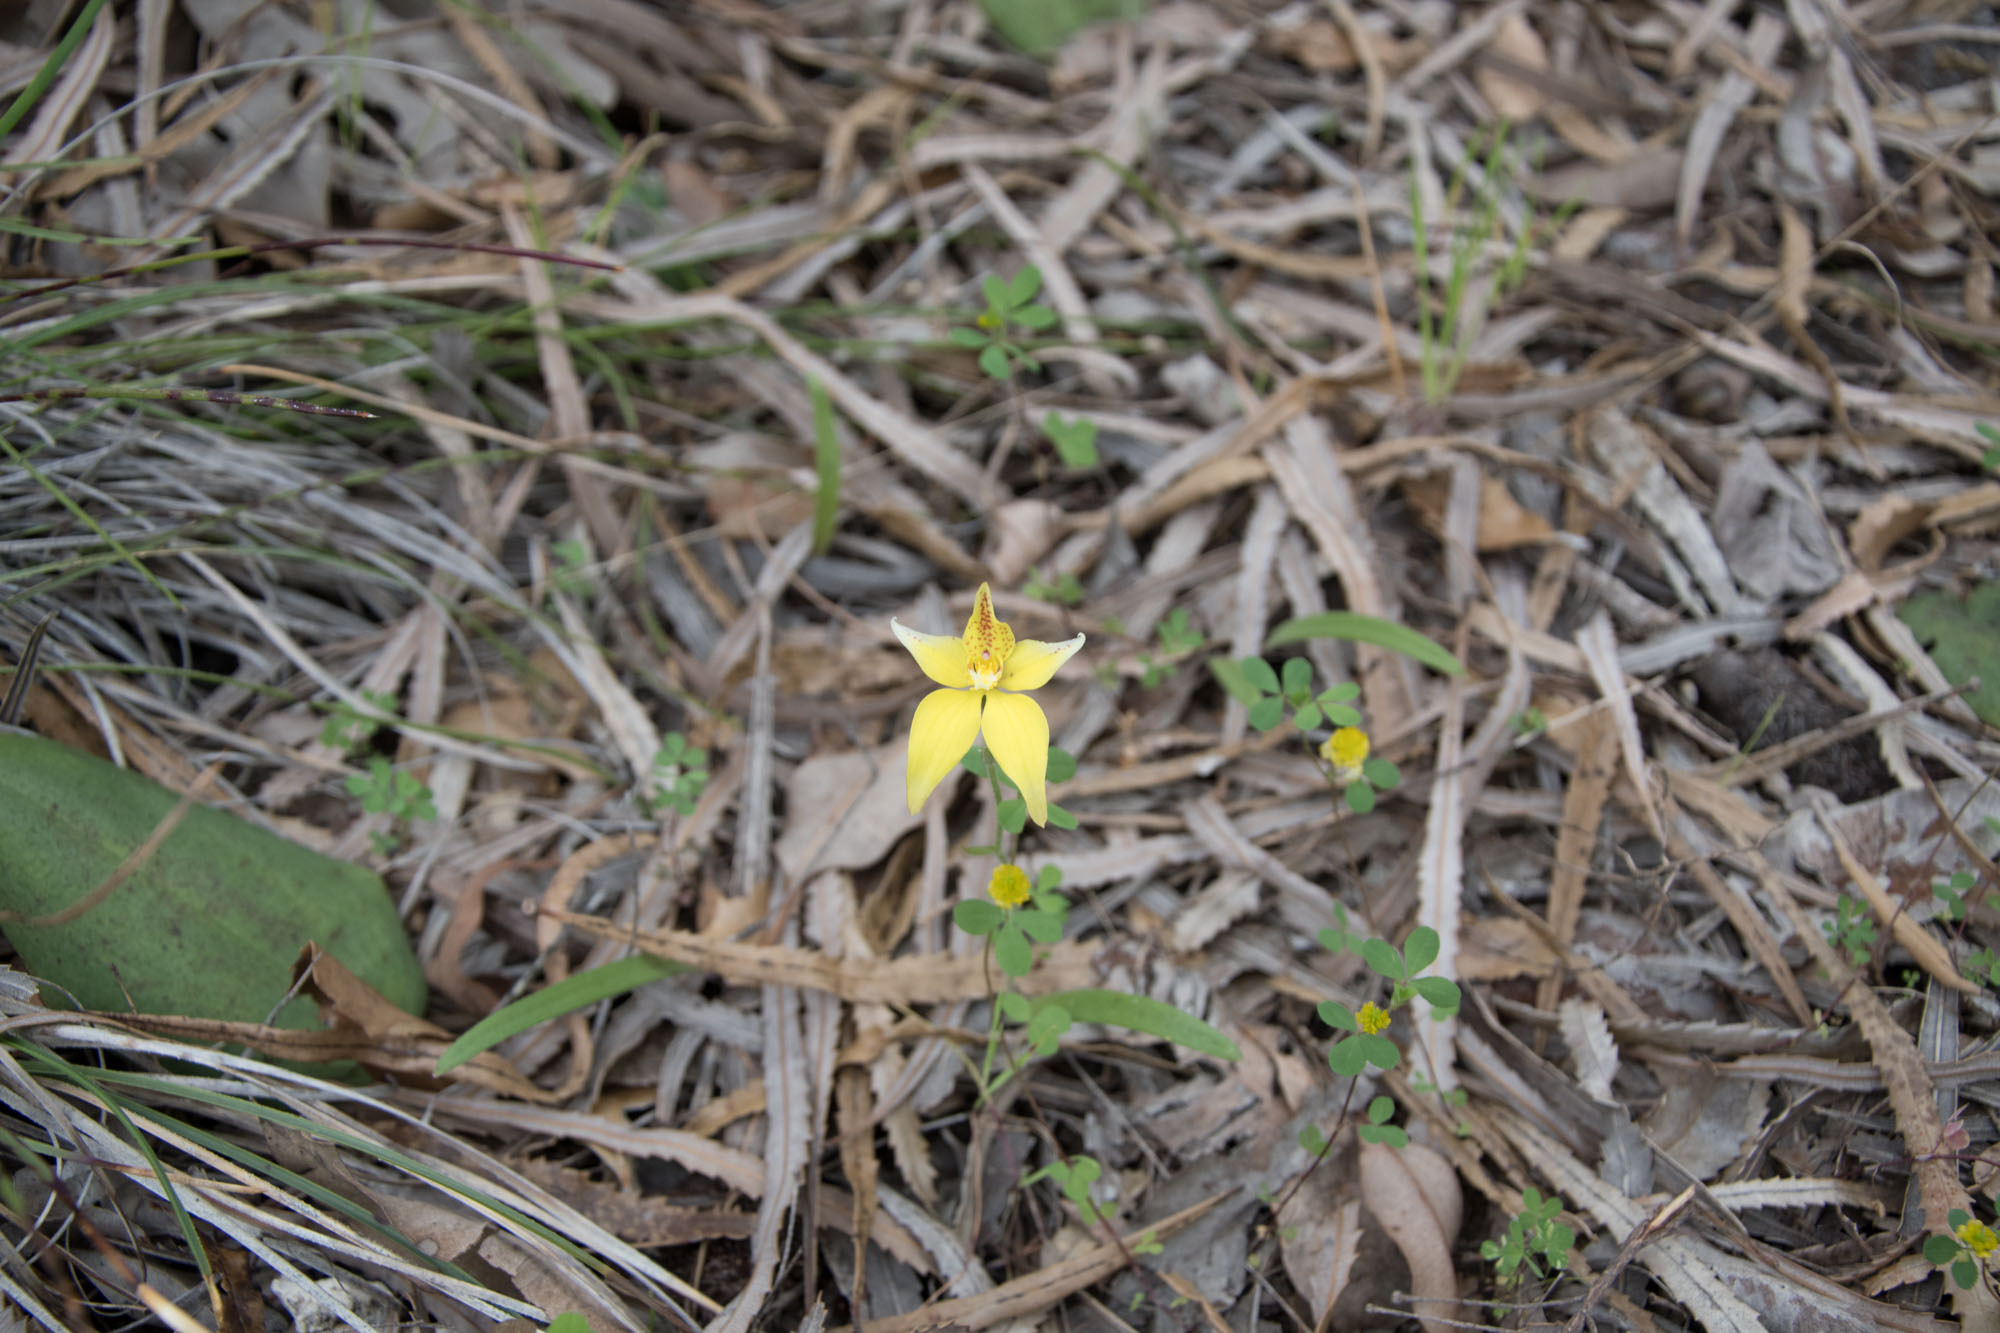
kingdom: Plantae
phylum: Tracheophyta
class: Liliopsida
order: Asparagales
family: Orchidaceae
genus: Caladenia
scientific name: Caladenia flava
